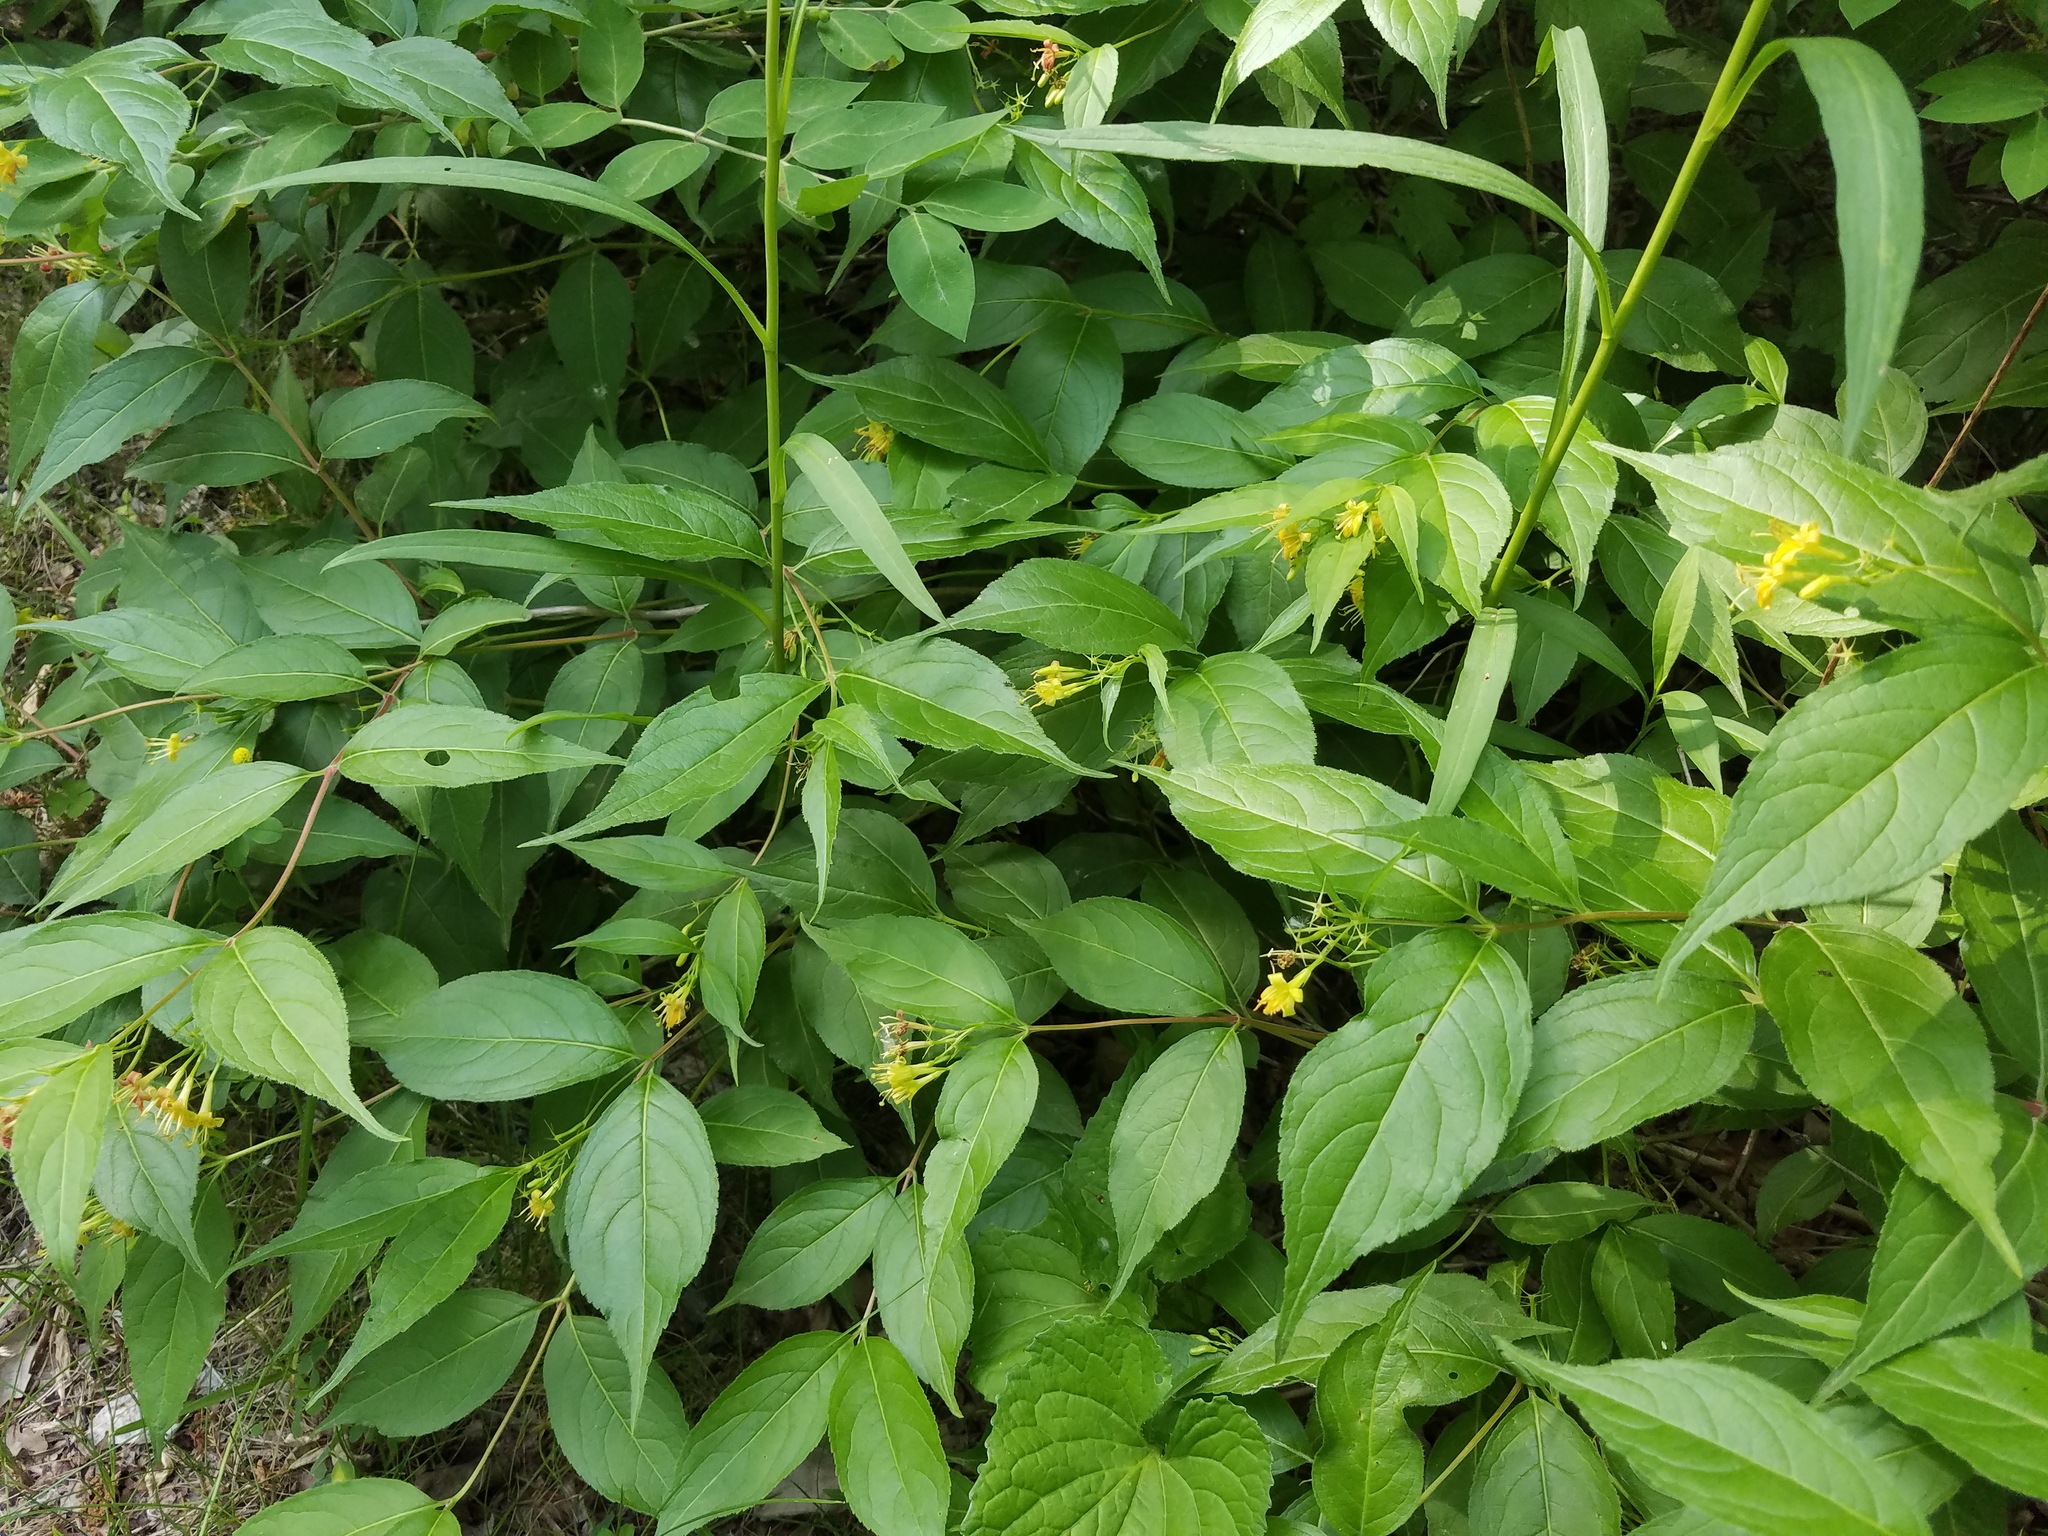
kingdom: Plantae
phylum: Tracheophyta
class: Magnoliopsida
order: Dipsacales
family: Caprifoliaceae
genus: Diervilla
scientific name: Diervilla lonicera
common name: Bush-honeysuckle
